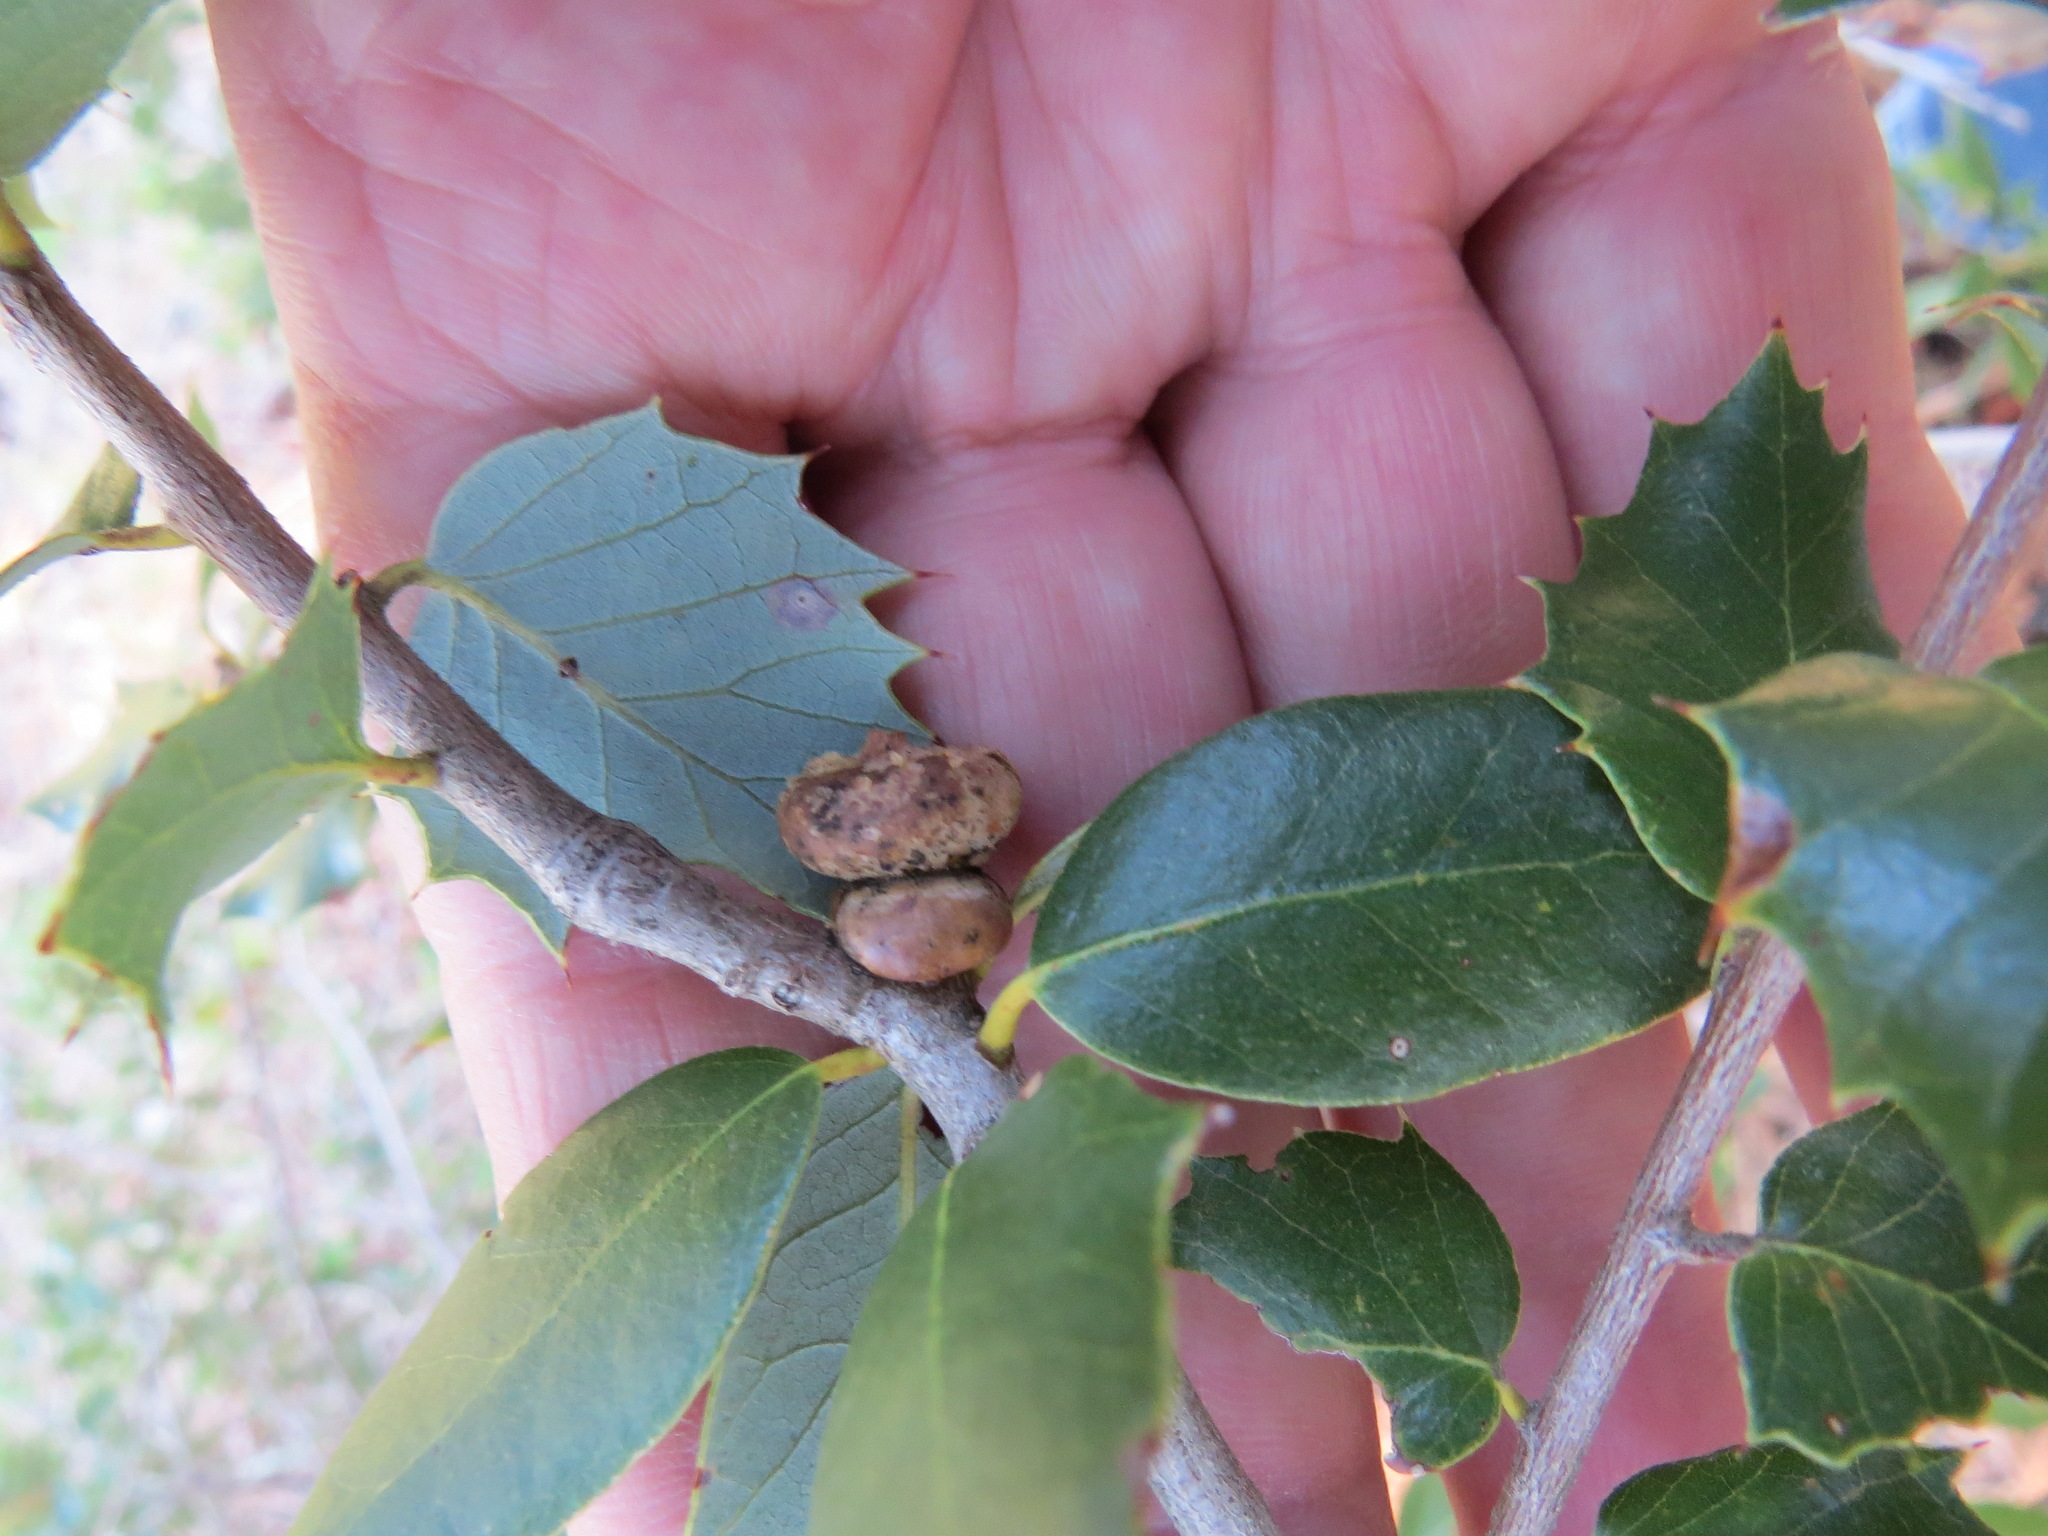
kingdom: Animalia
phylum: Arthropoda
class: Insecta
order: Hymenoptera
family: Cynipidae
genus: Heteroecus
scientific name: Heteroecus
